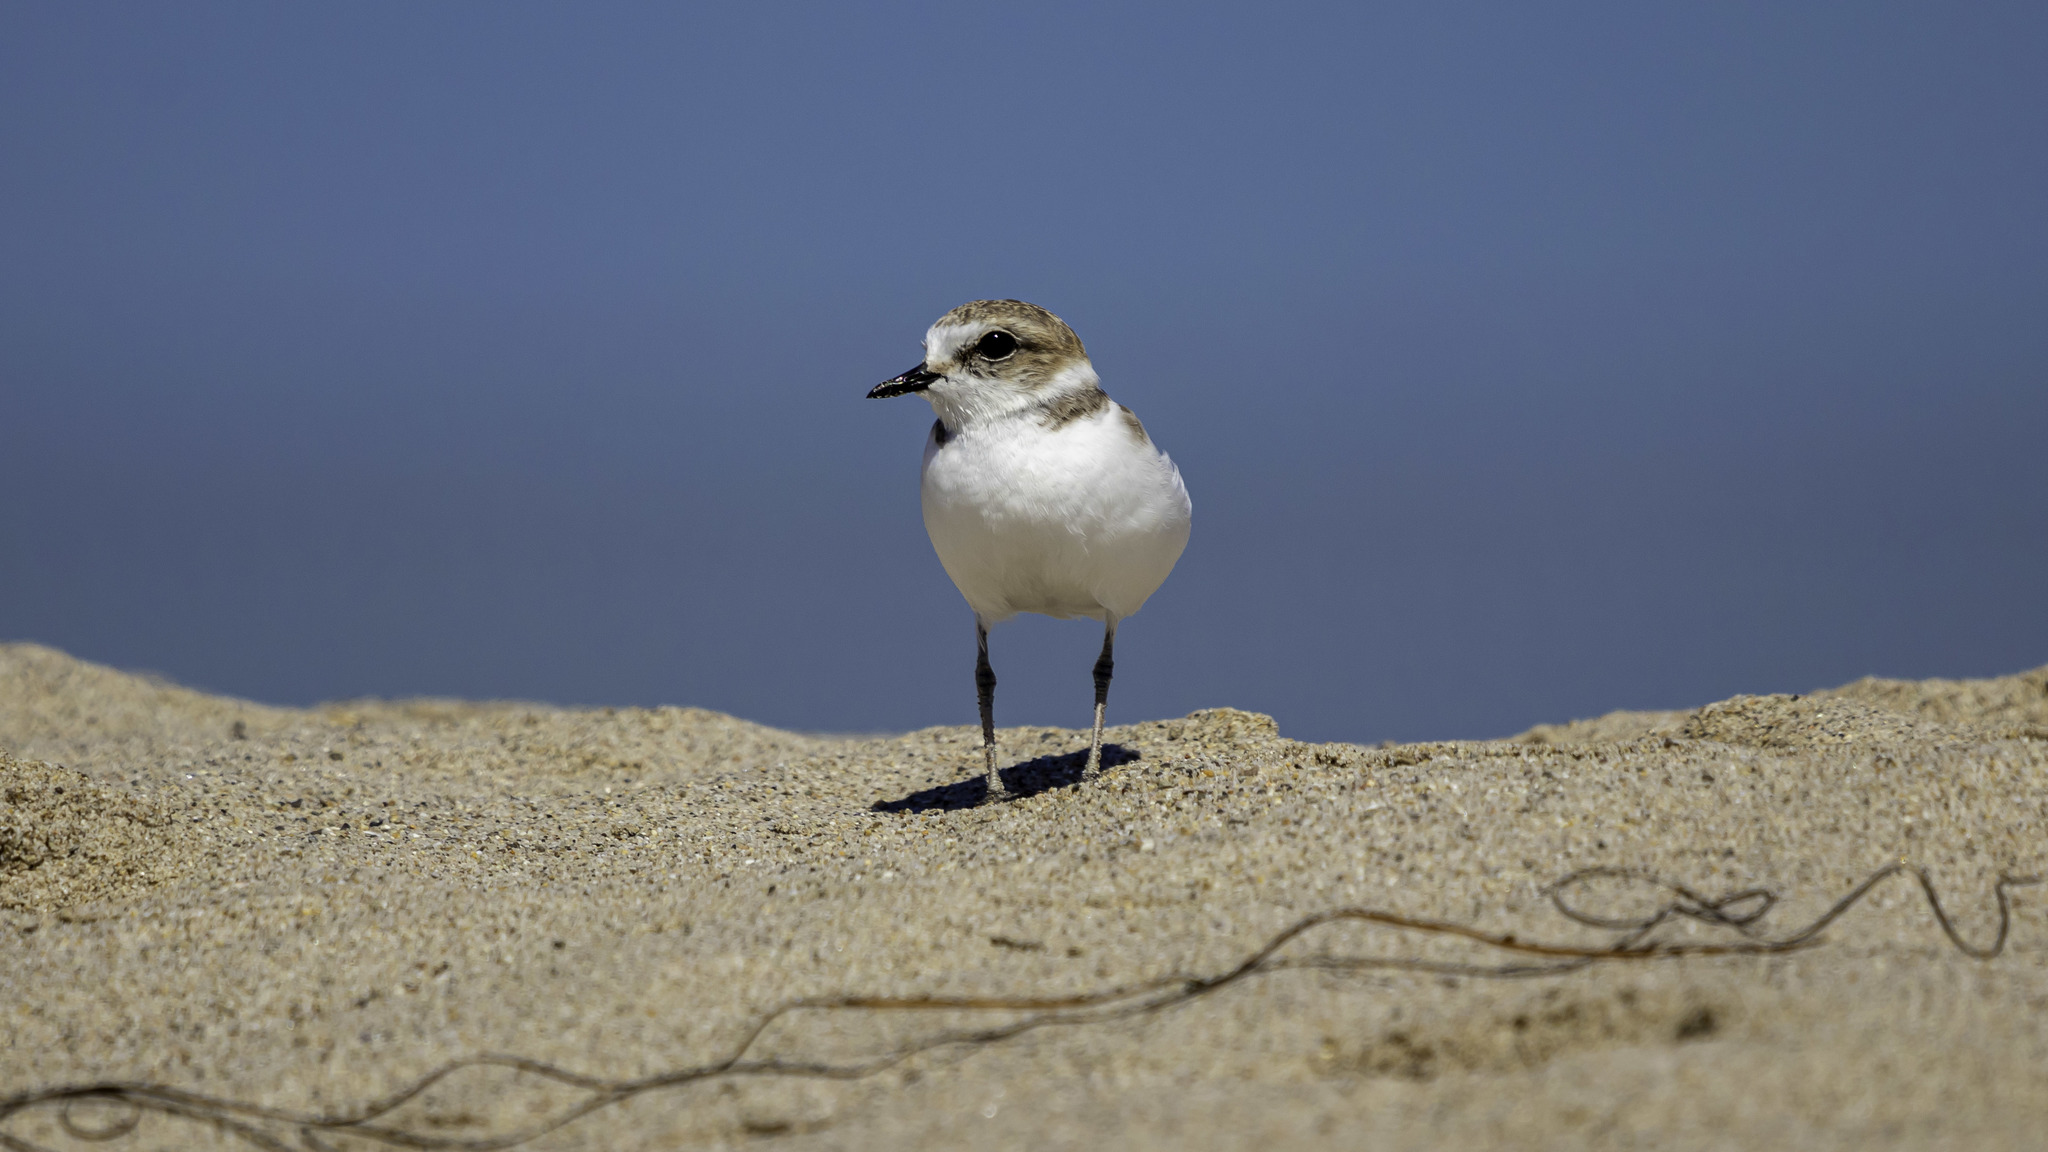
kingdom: Animalia
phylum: Chordata
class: Aves
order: Charadriiformes
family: Charadriidae
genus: Anarhynchus
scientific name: Anarhynchus
